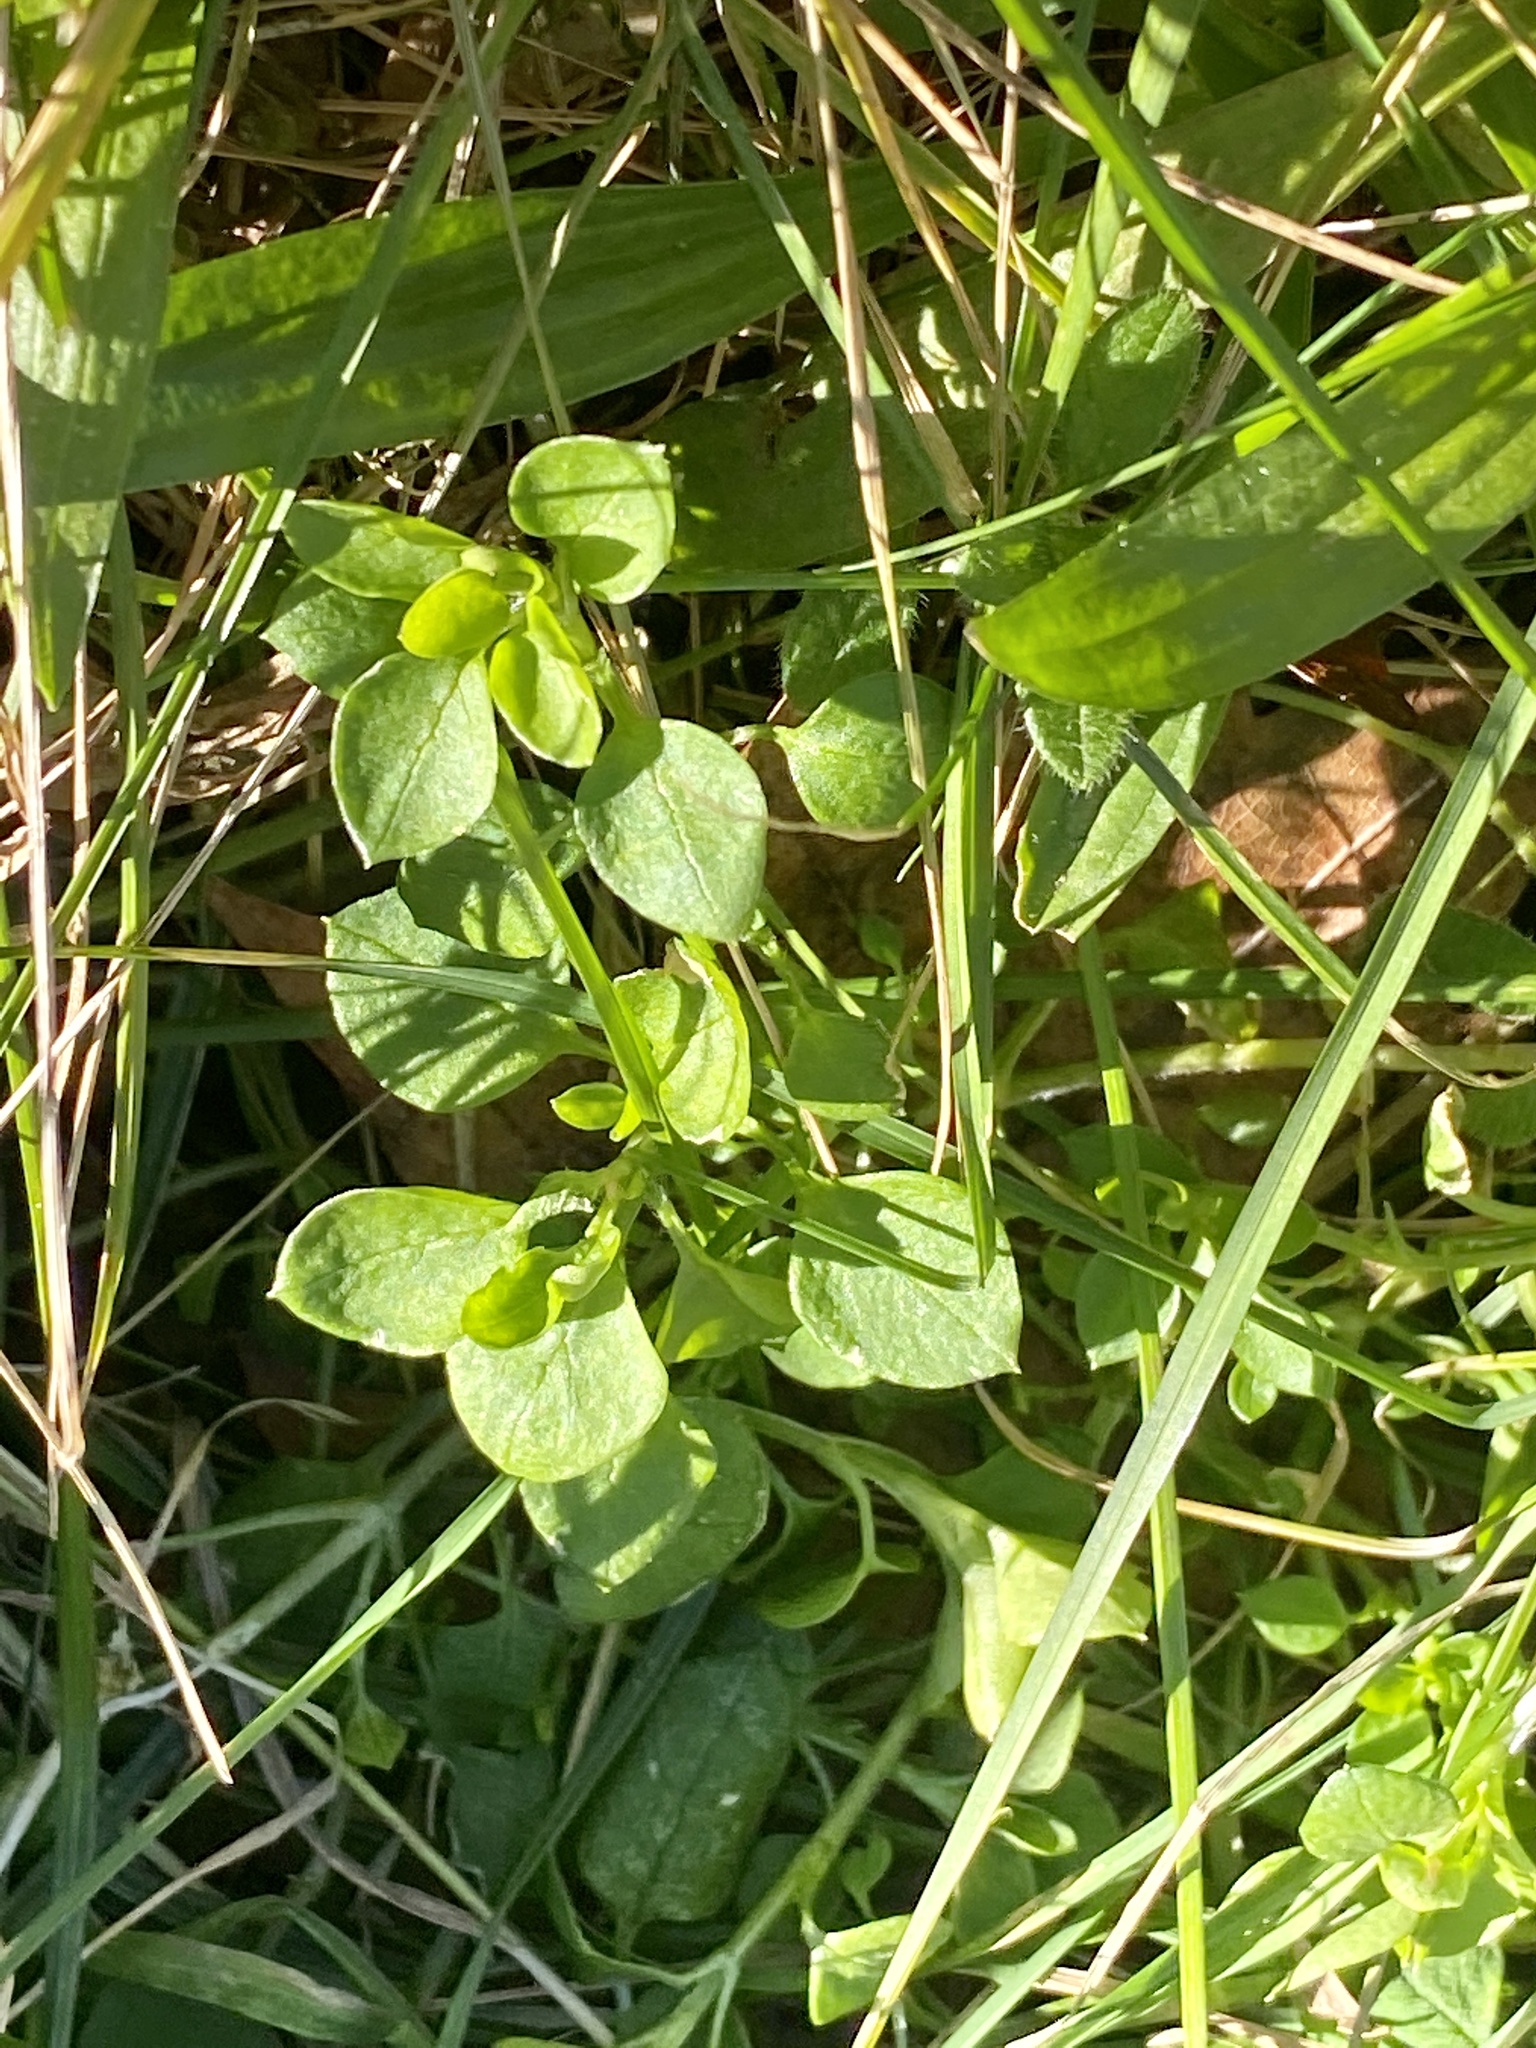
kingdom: Plantae
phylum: Tracheophyta
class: Magnoliopsida
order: Caryophyllales
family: Caryophyllaceae
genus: Stellaria
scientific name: Stellaria media
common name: Common chickweed
